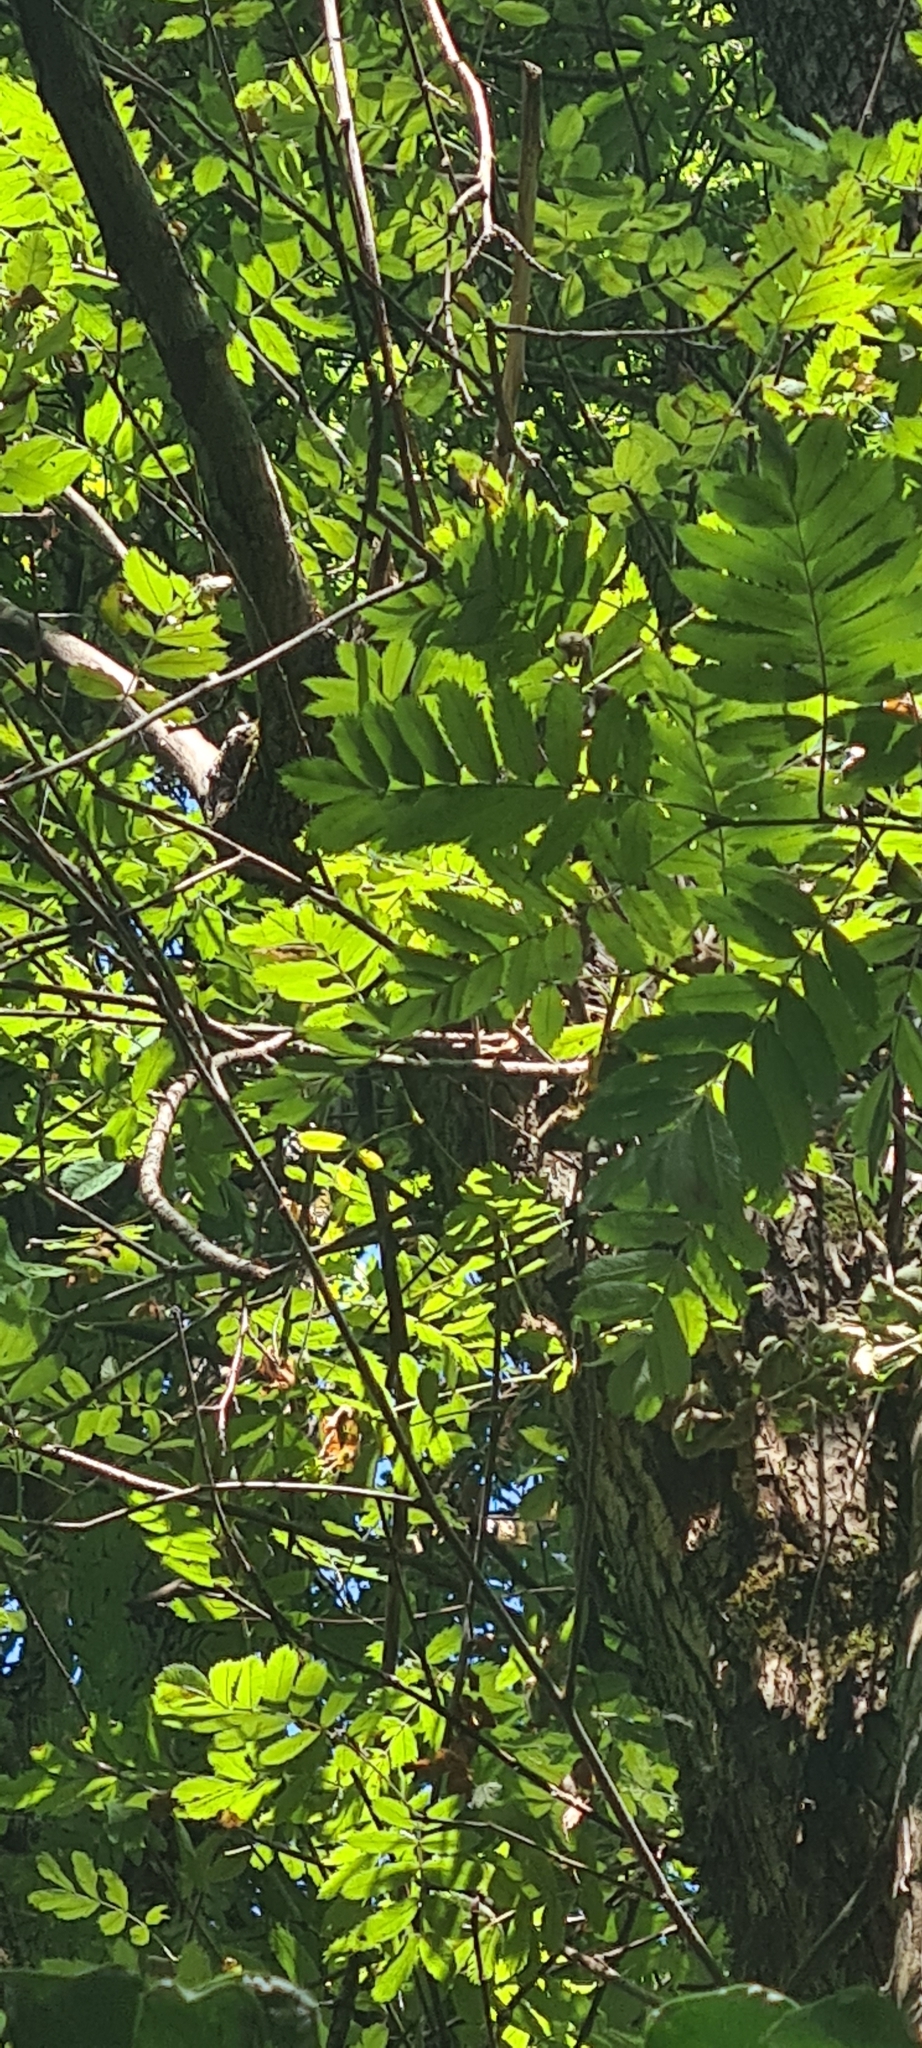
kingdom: Plantae
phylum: Tracheophyta
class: Magnoliopsida
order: Rosales
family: Rosaceae
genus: Sorbus
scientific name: Sorbus aucuparia
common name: Rowan
